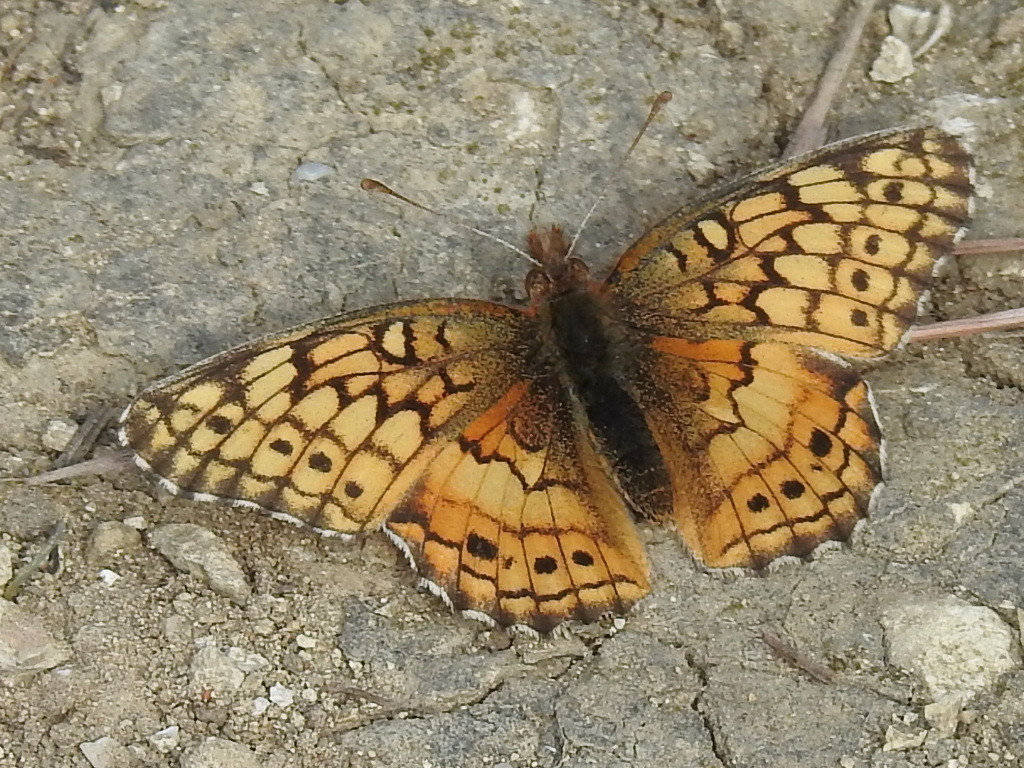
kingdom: Animalia
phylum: Arthropoda
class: Insecta
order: Lepidoptera
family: Nymphalidae
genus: Euptoieta
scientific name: Euptoieta claudia
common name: Variegated fritillary
